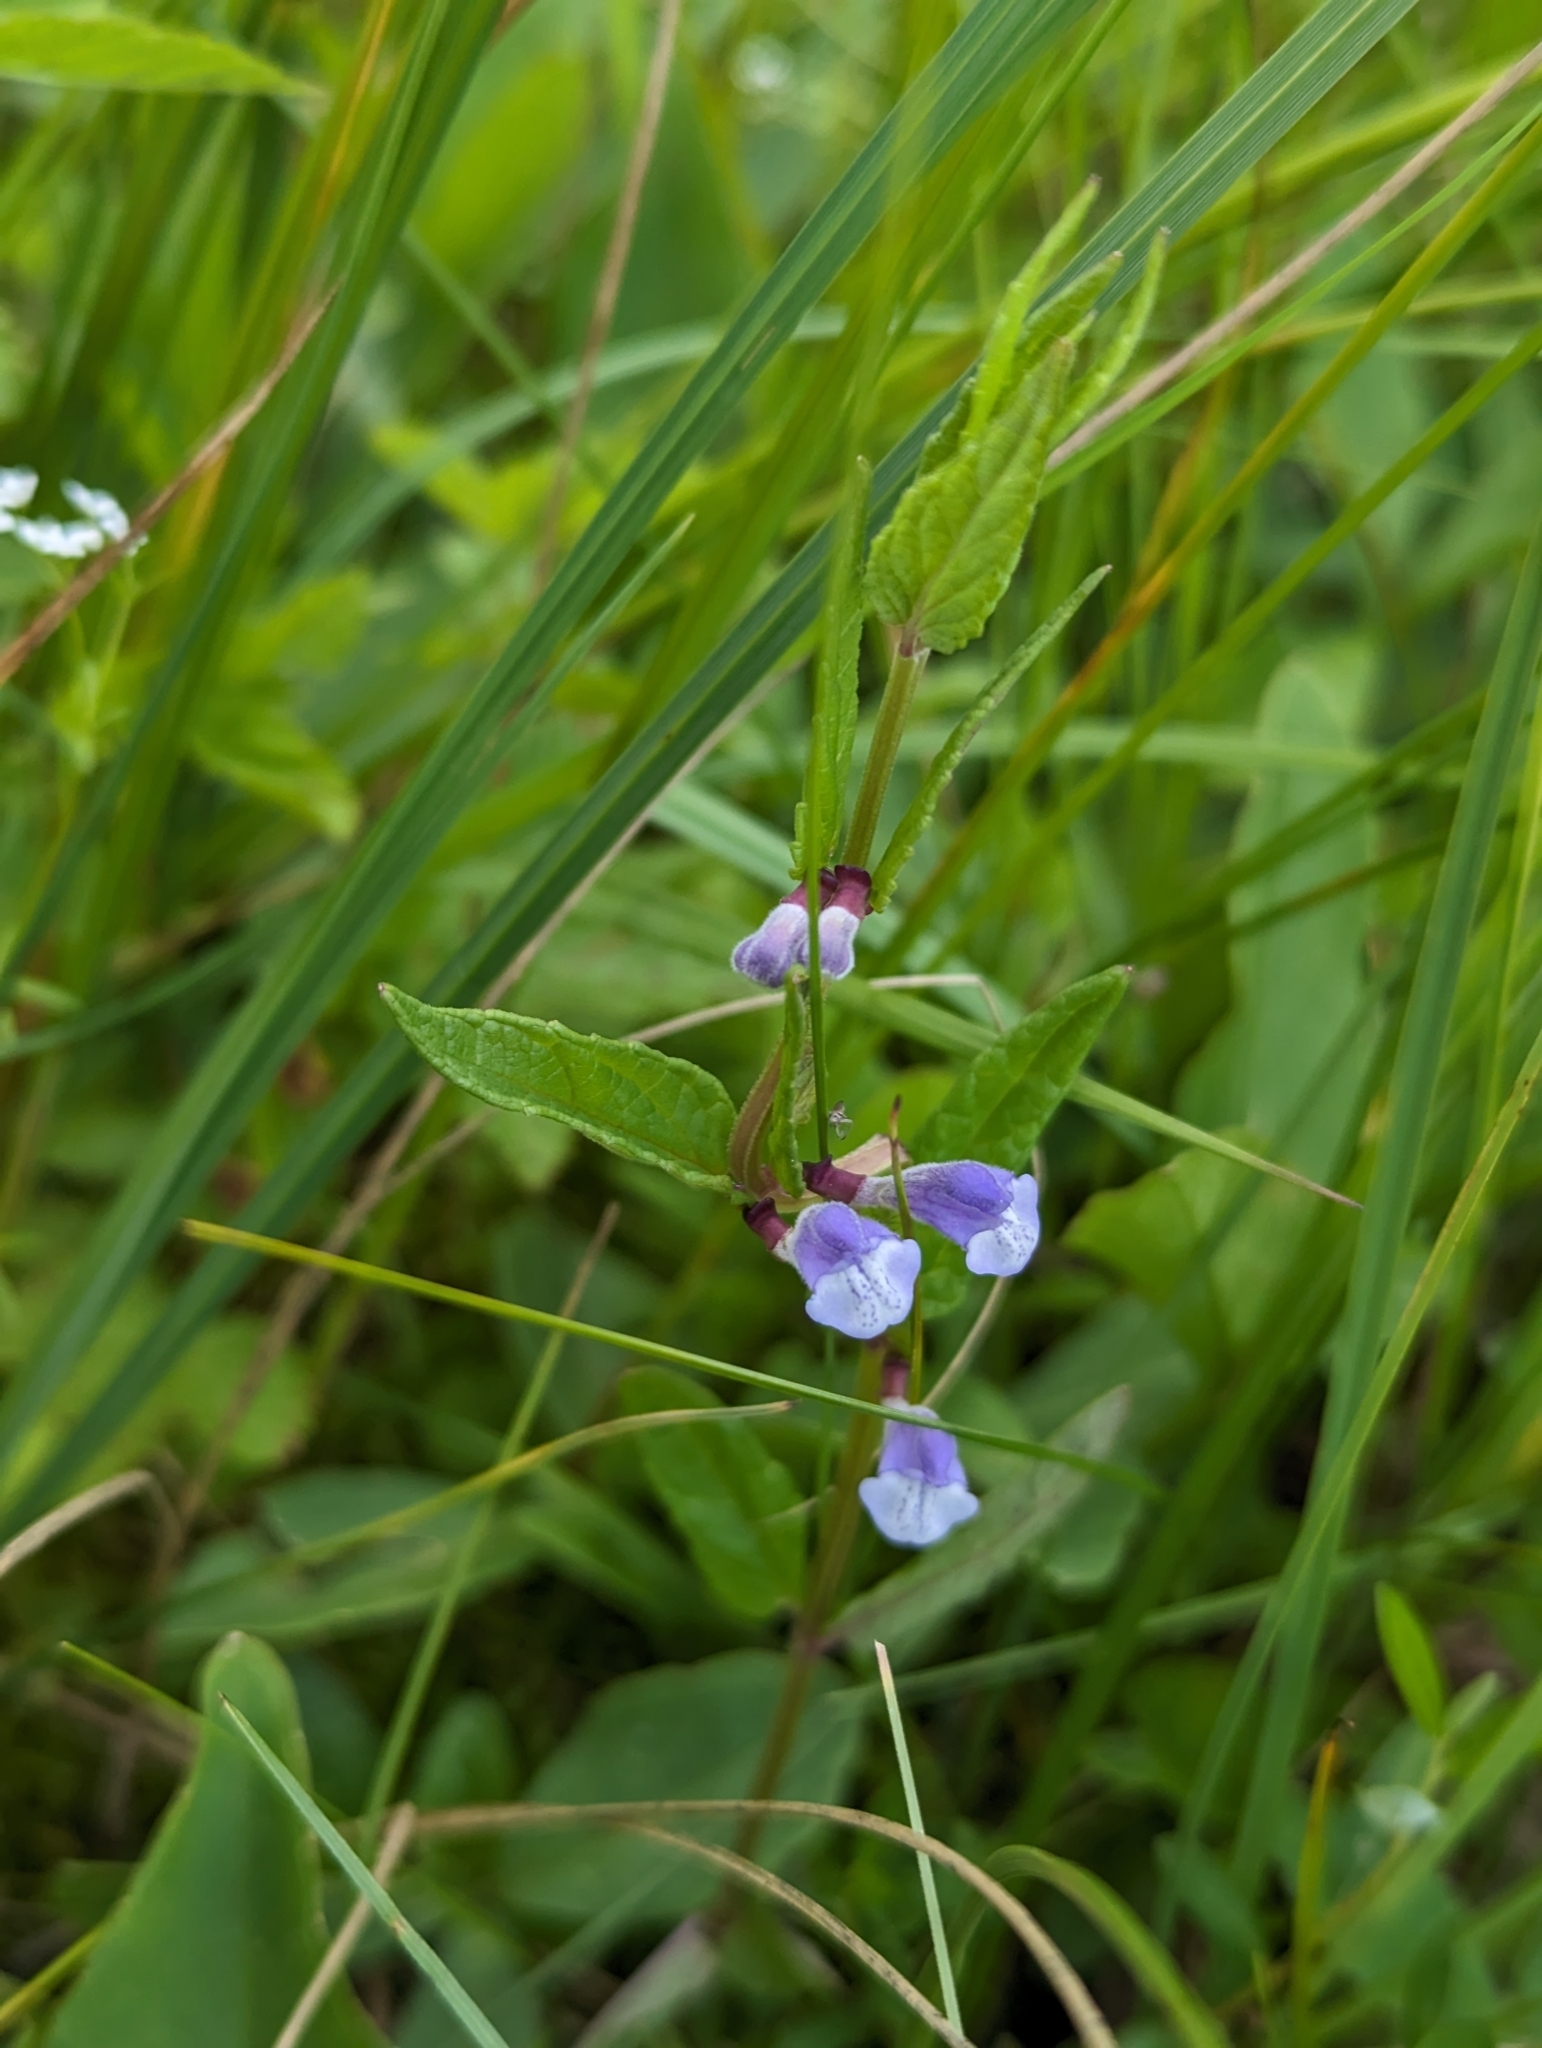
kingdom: Plantae
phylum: Tracheophyta
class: Magnoliopsida
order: Lamiales
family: Lamiaceae
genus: Scutellaria
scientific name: Scutellaria galericulata
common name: Skullcap
